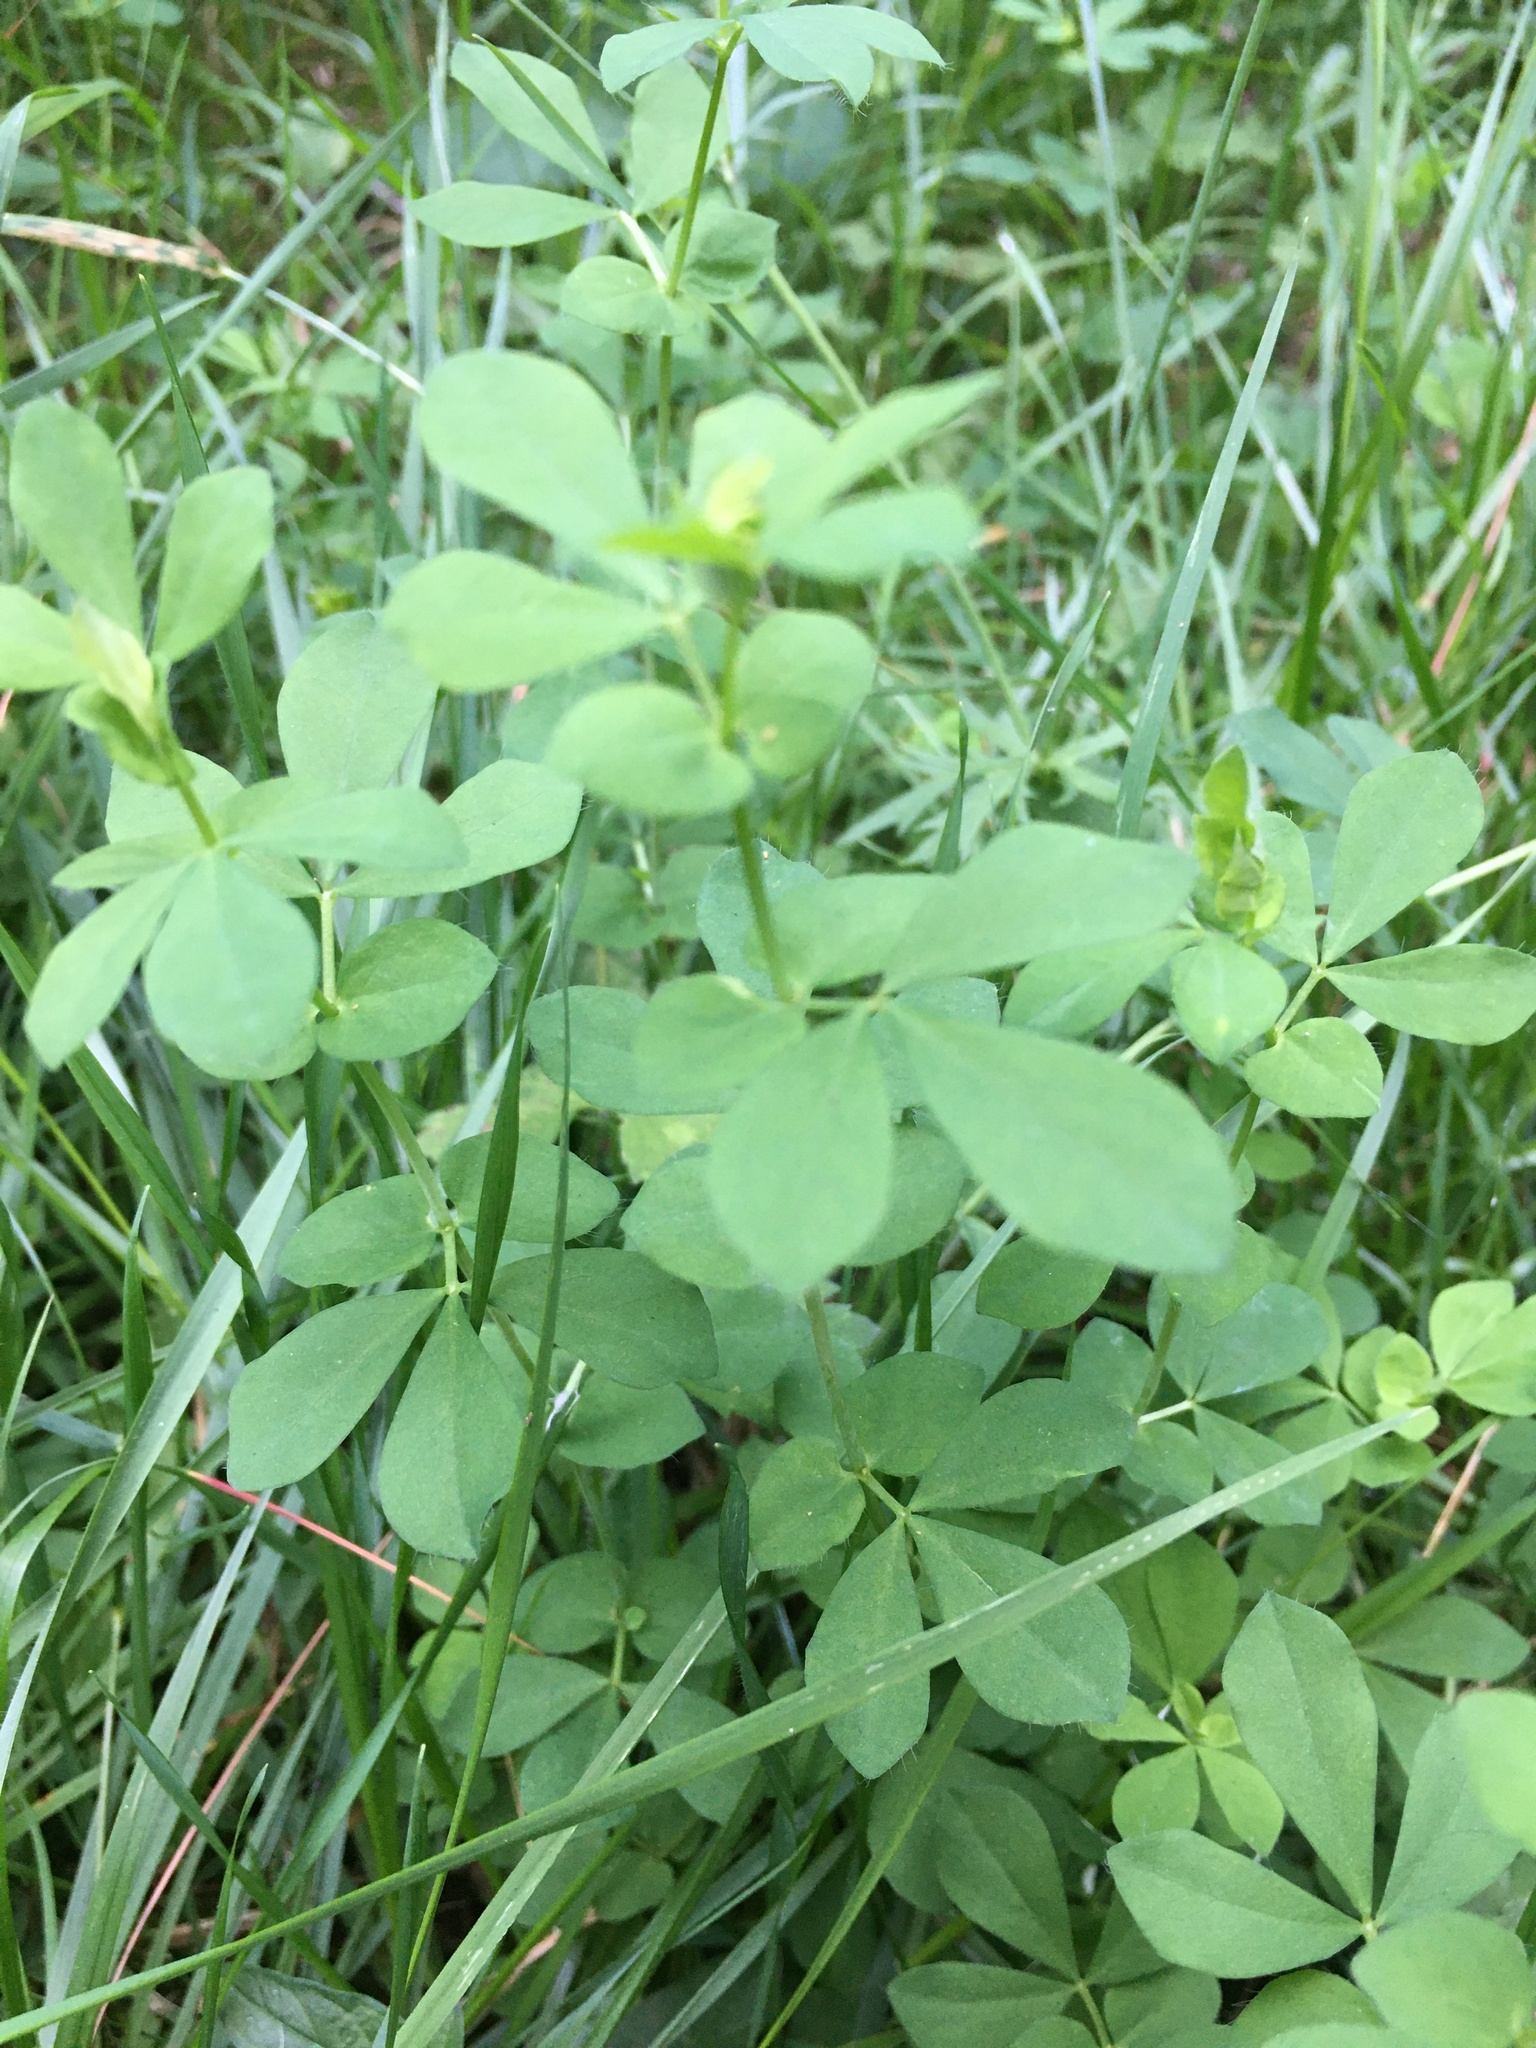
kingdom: Plantae
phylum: Tracheophyta
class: Magnoliopsida
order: Fabales
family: Fabaceae
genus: Lotus
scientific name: Lotus pedunculatus
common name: Greater birdsfoot-trefoil
